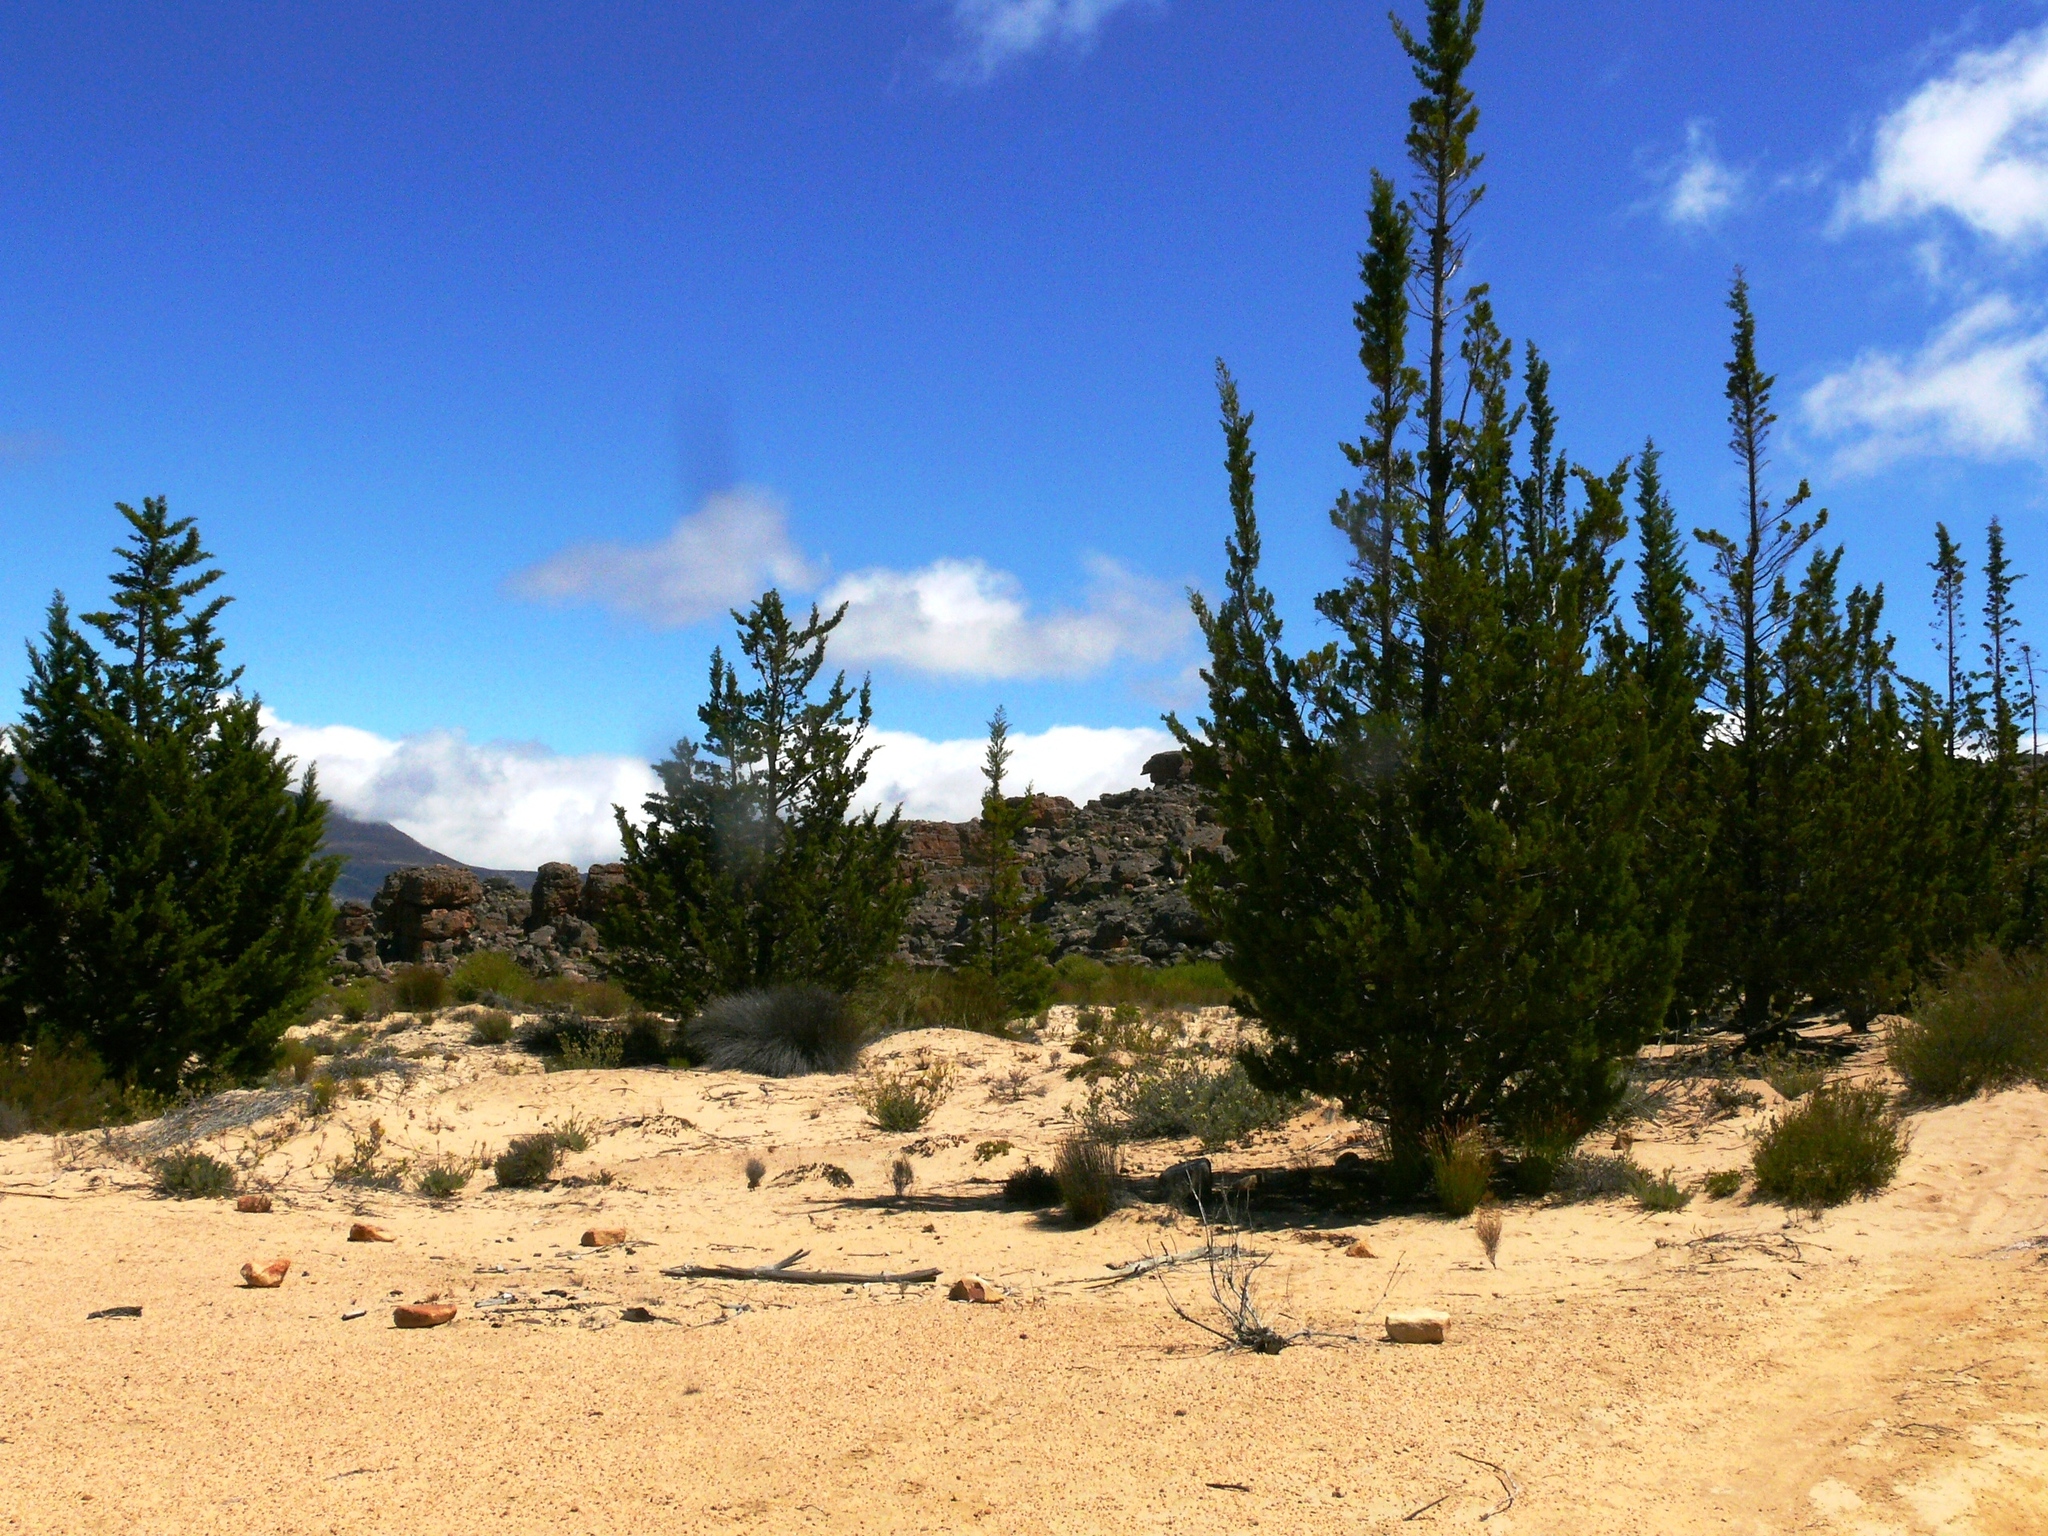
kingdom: Plantae
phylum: Tracheophyta
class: Pinopsida
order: Pinales
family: Cupressaceae
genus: Widdringtonia
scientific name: Widdringtonia nodiflora
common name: Cape cypress
